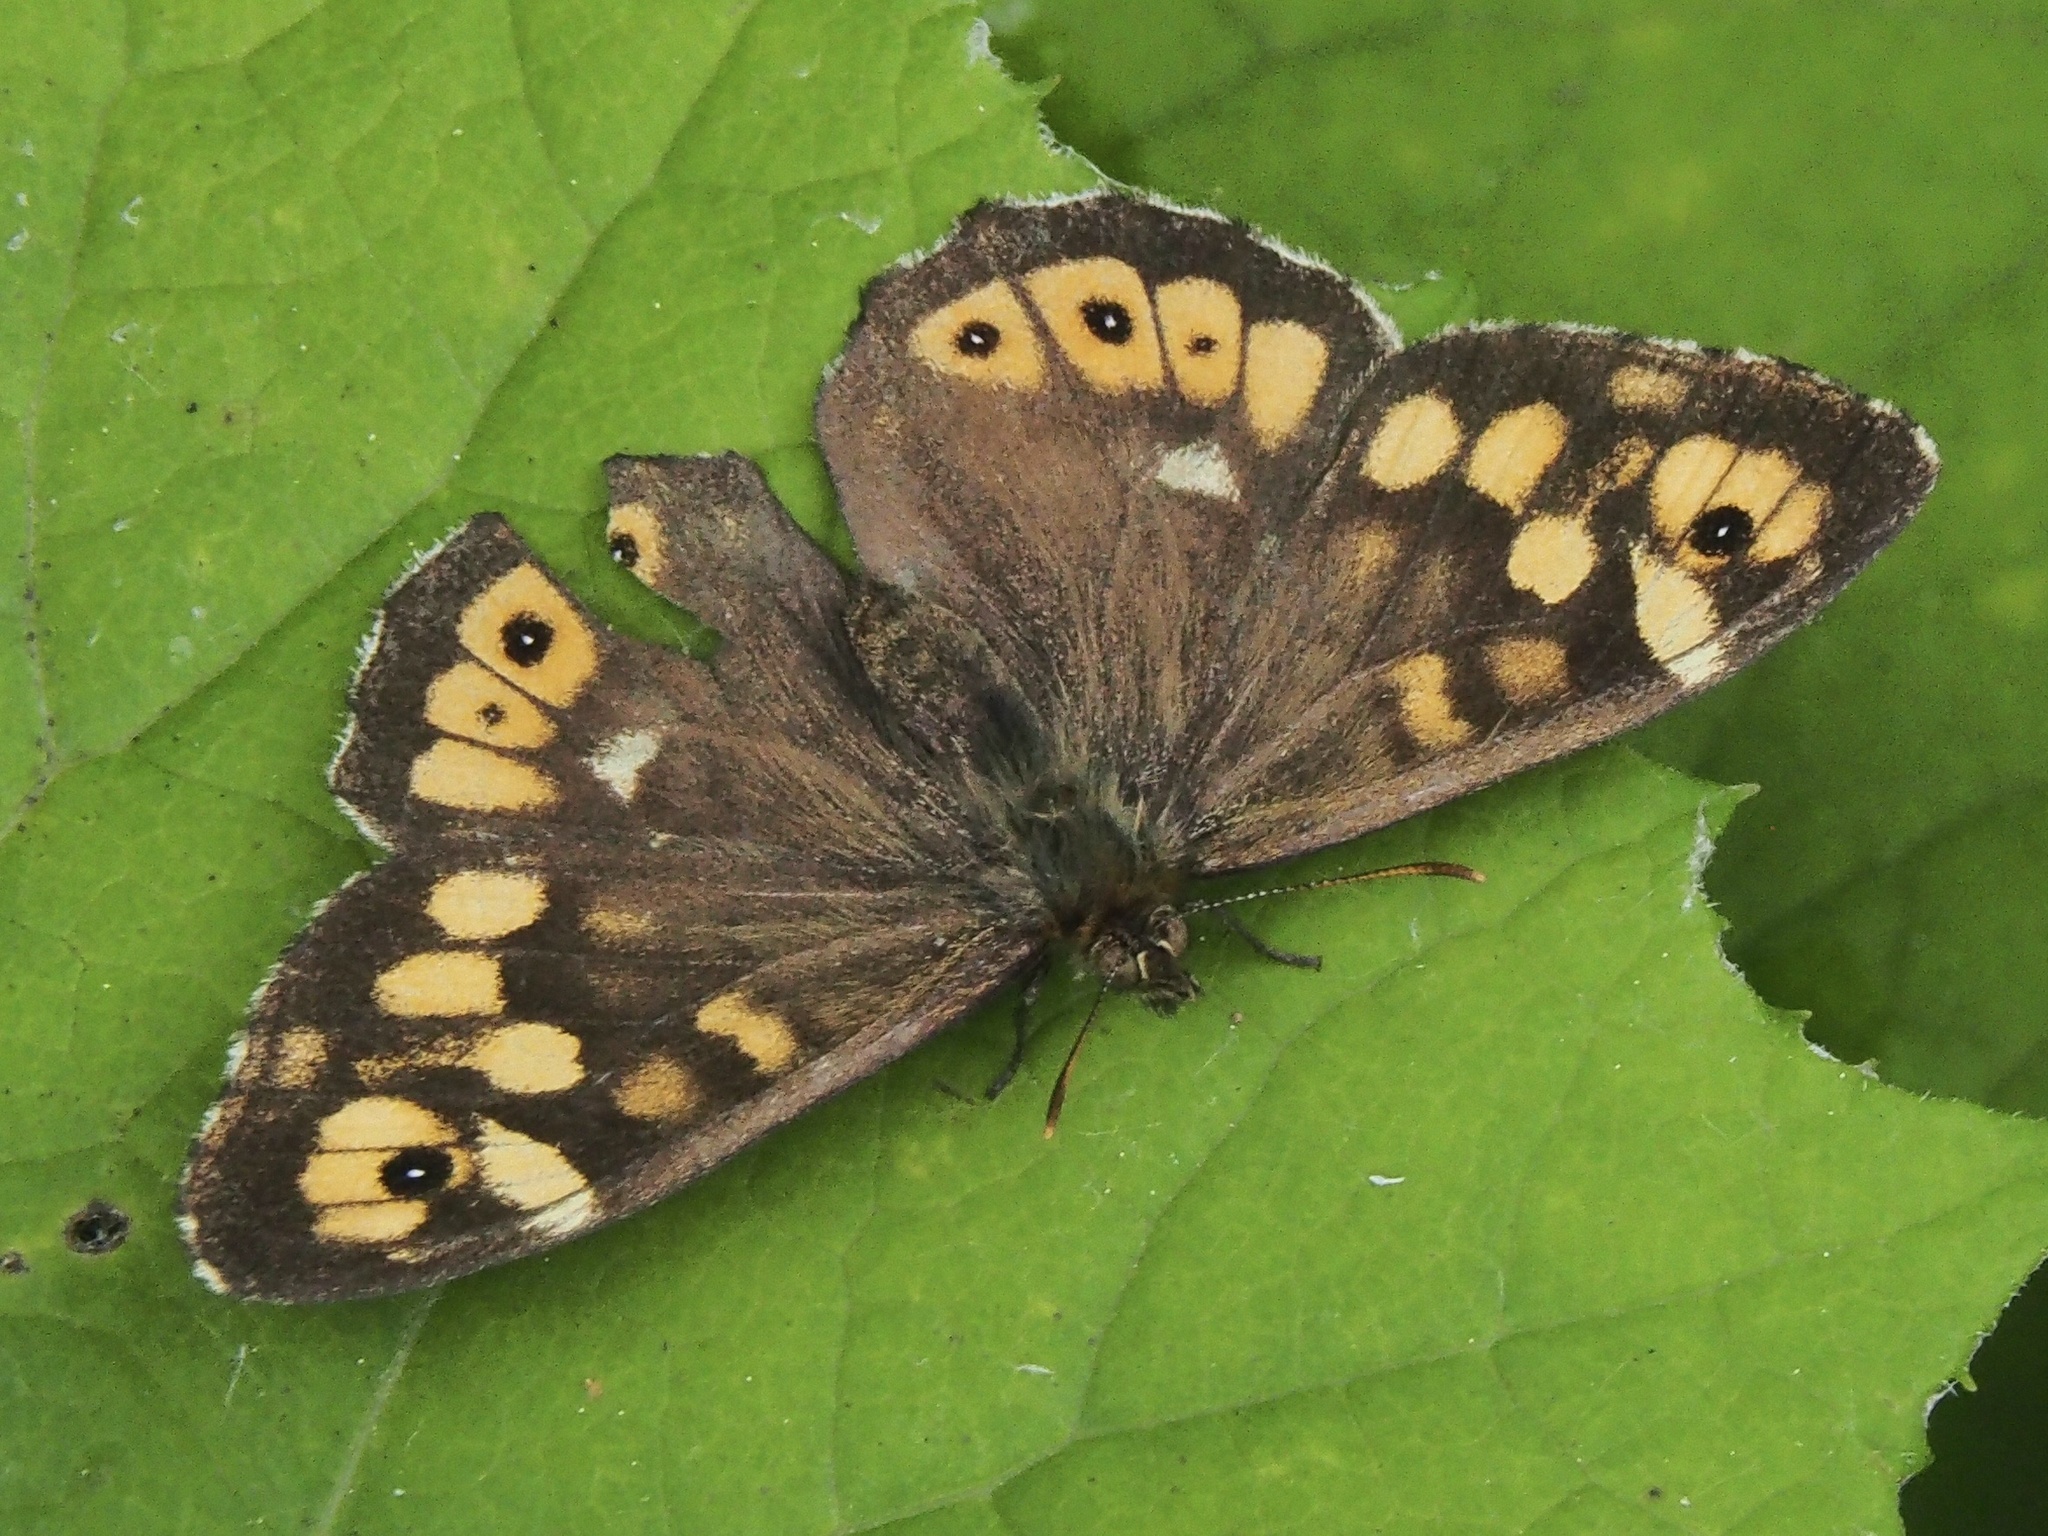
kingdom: Animalia
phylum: Arthropoda
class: Insecta
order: Lepidoptera
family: Nymphalidae
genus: Pararge
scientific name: Pararge aegeria
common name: Speckled wood
